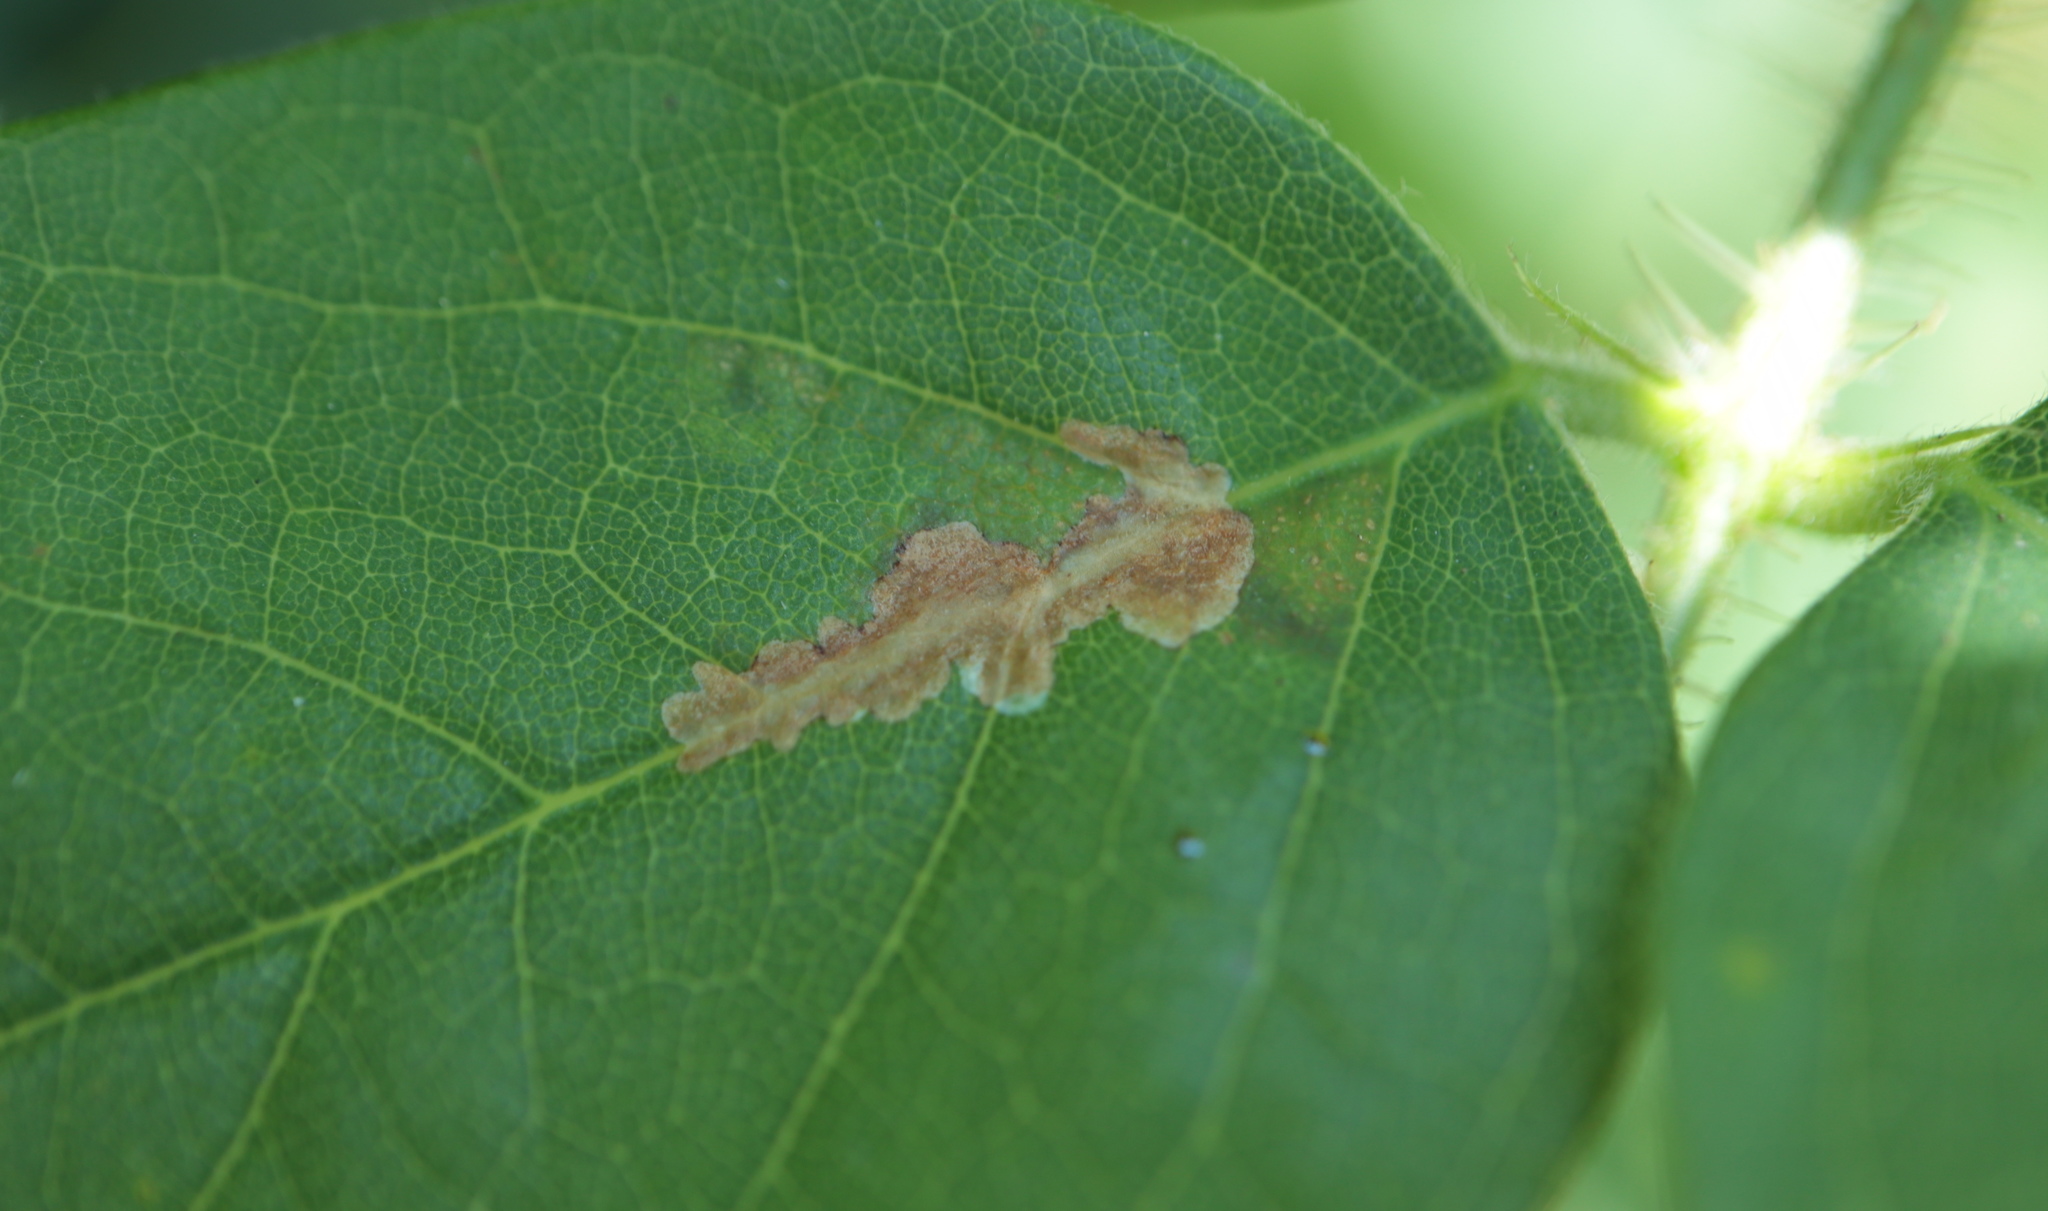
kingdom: Animalia
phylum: Arthropoda
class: Insecta
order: Lepidoptera
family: Gracillariidae
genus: Parectopa
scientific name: Parectopa robiniella
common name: Locust digitate leafminer
